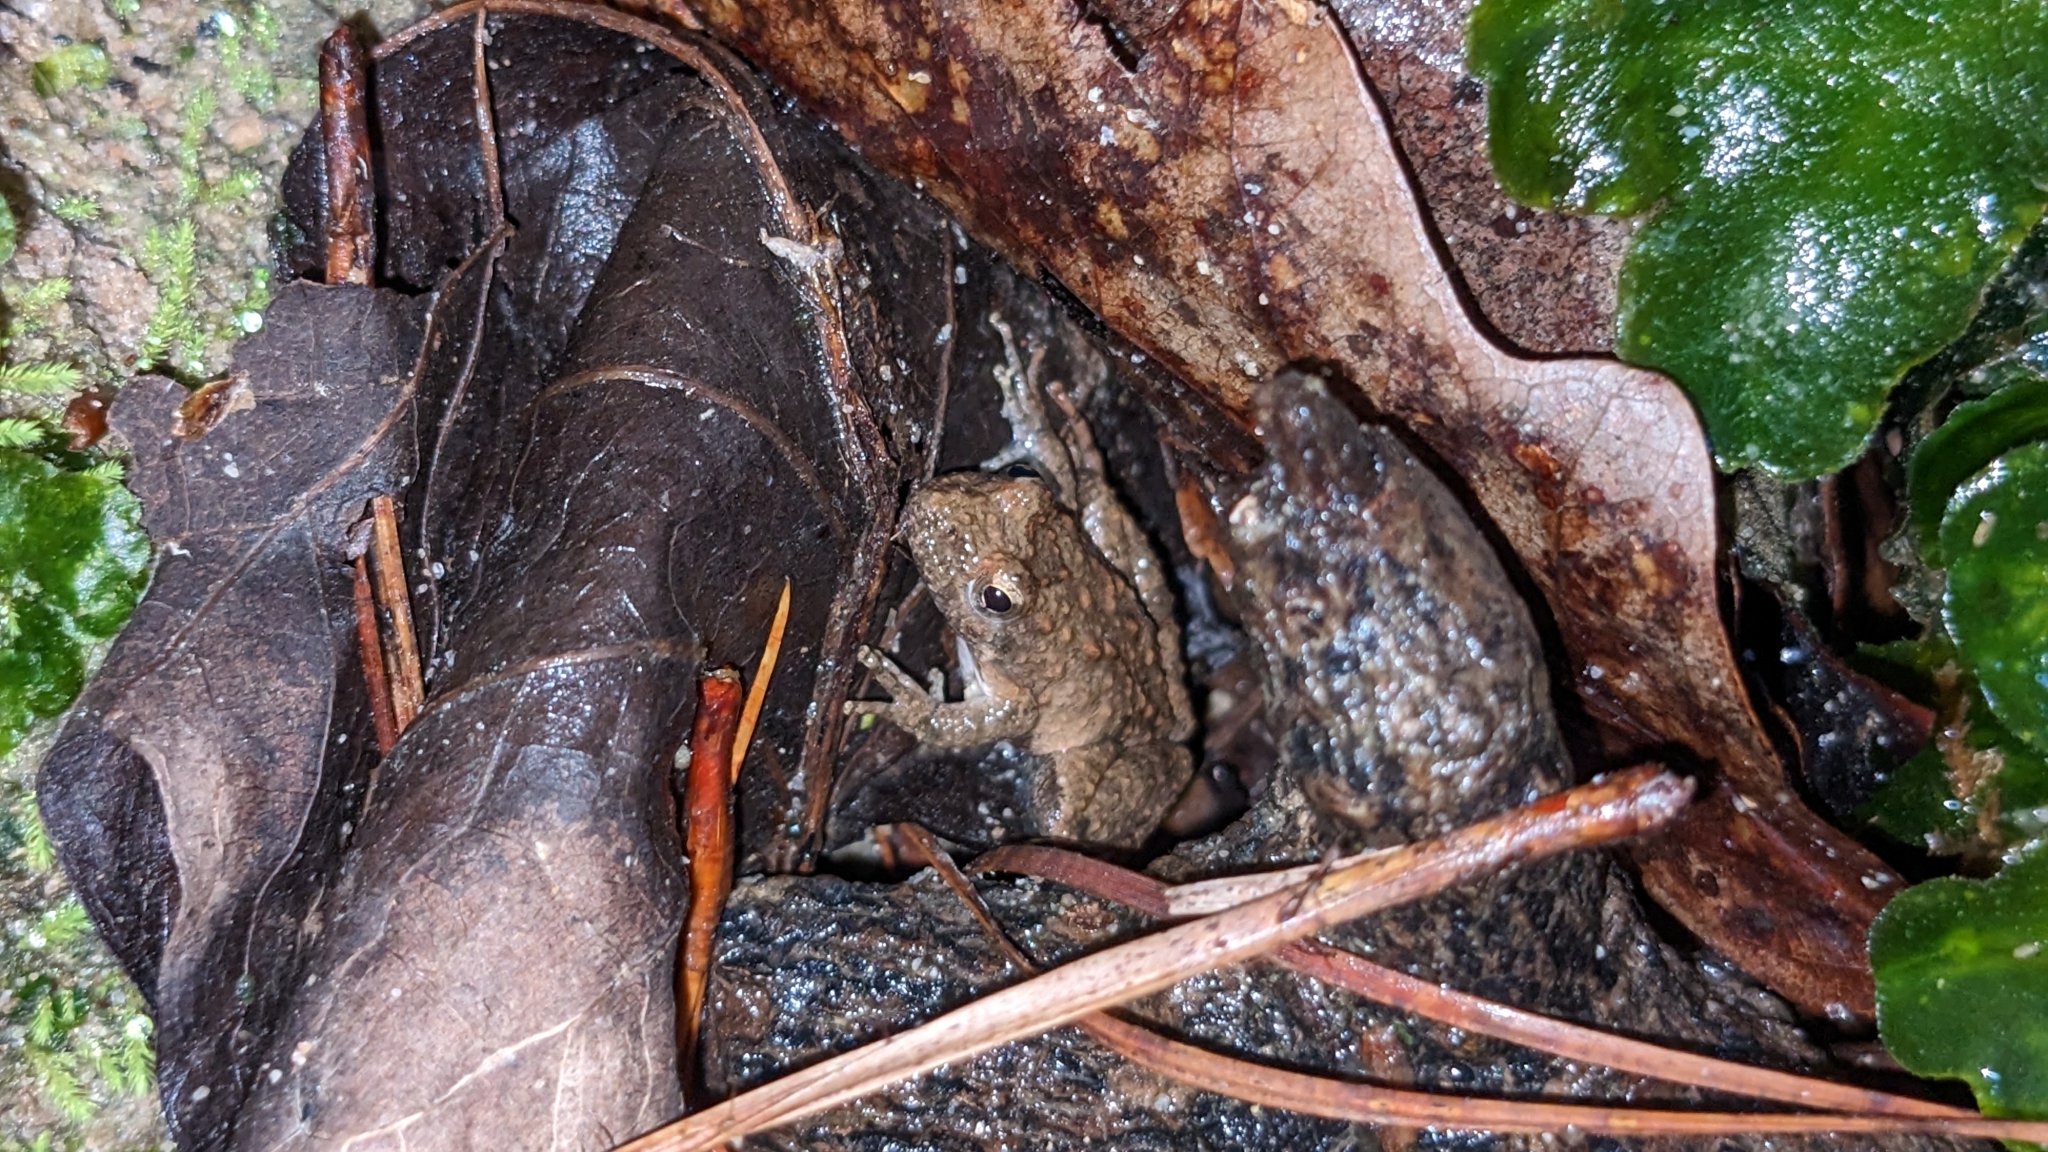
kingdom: Animalia
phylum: Chordata
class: Amphibia
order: Anura
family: Hylidae
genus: Acris
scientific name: Acris blanchardi
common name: Blanchard's cricket frog
